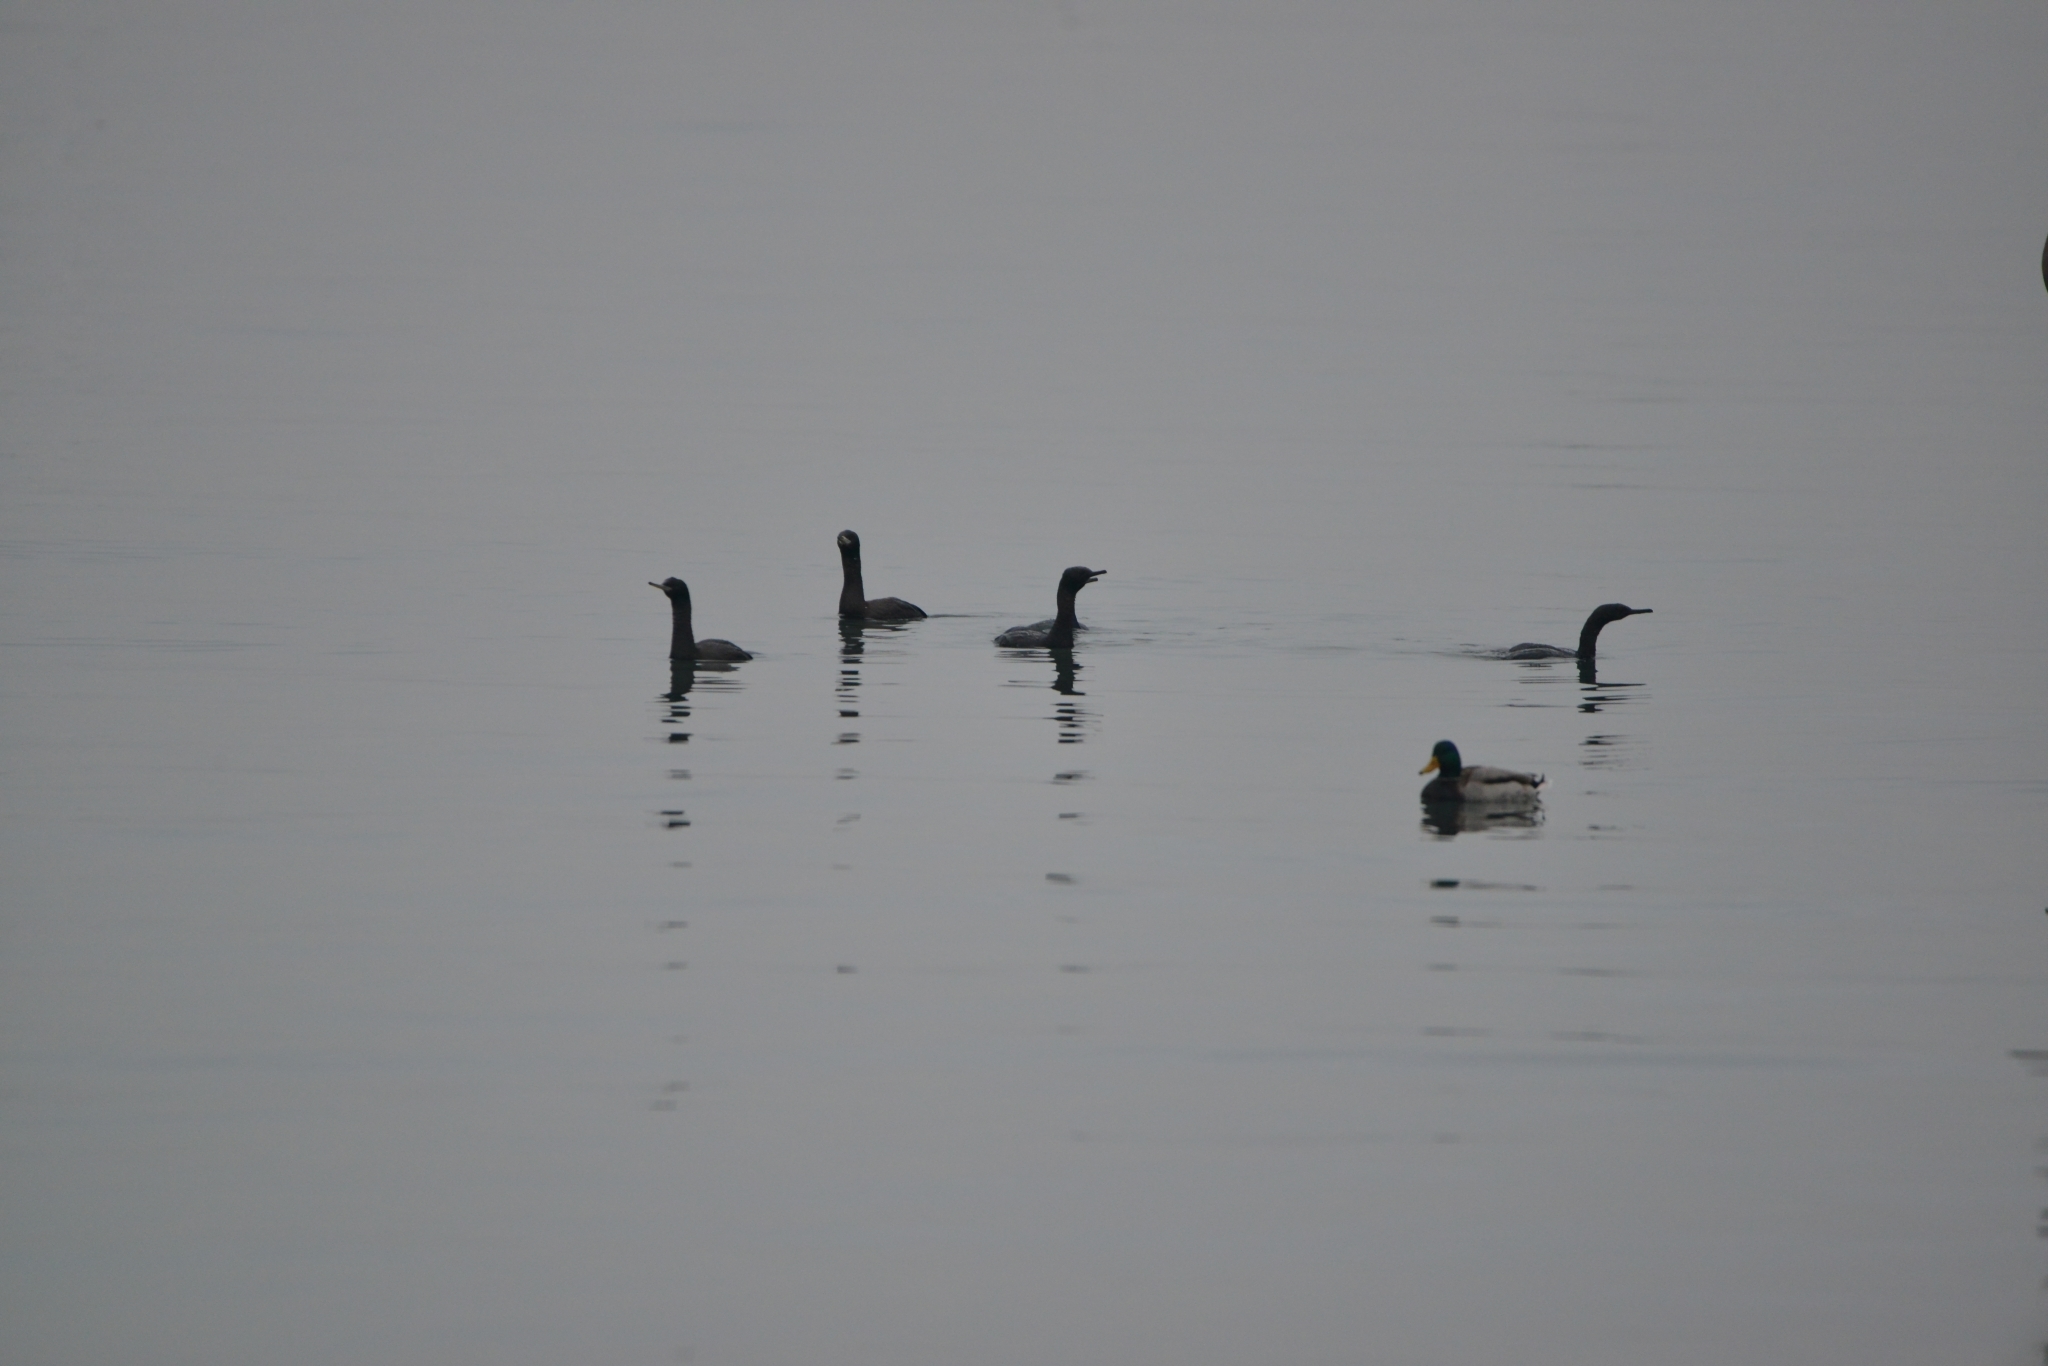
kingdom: Animalia
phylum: Chordata
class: Aves
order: Suliformes
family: Phalacrocoracidae
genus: Phalacrocorax
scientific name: Phalacrocorax pelagicus
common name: Pelagic cormorant
